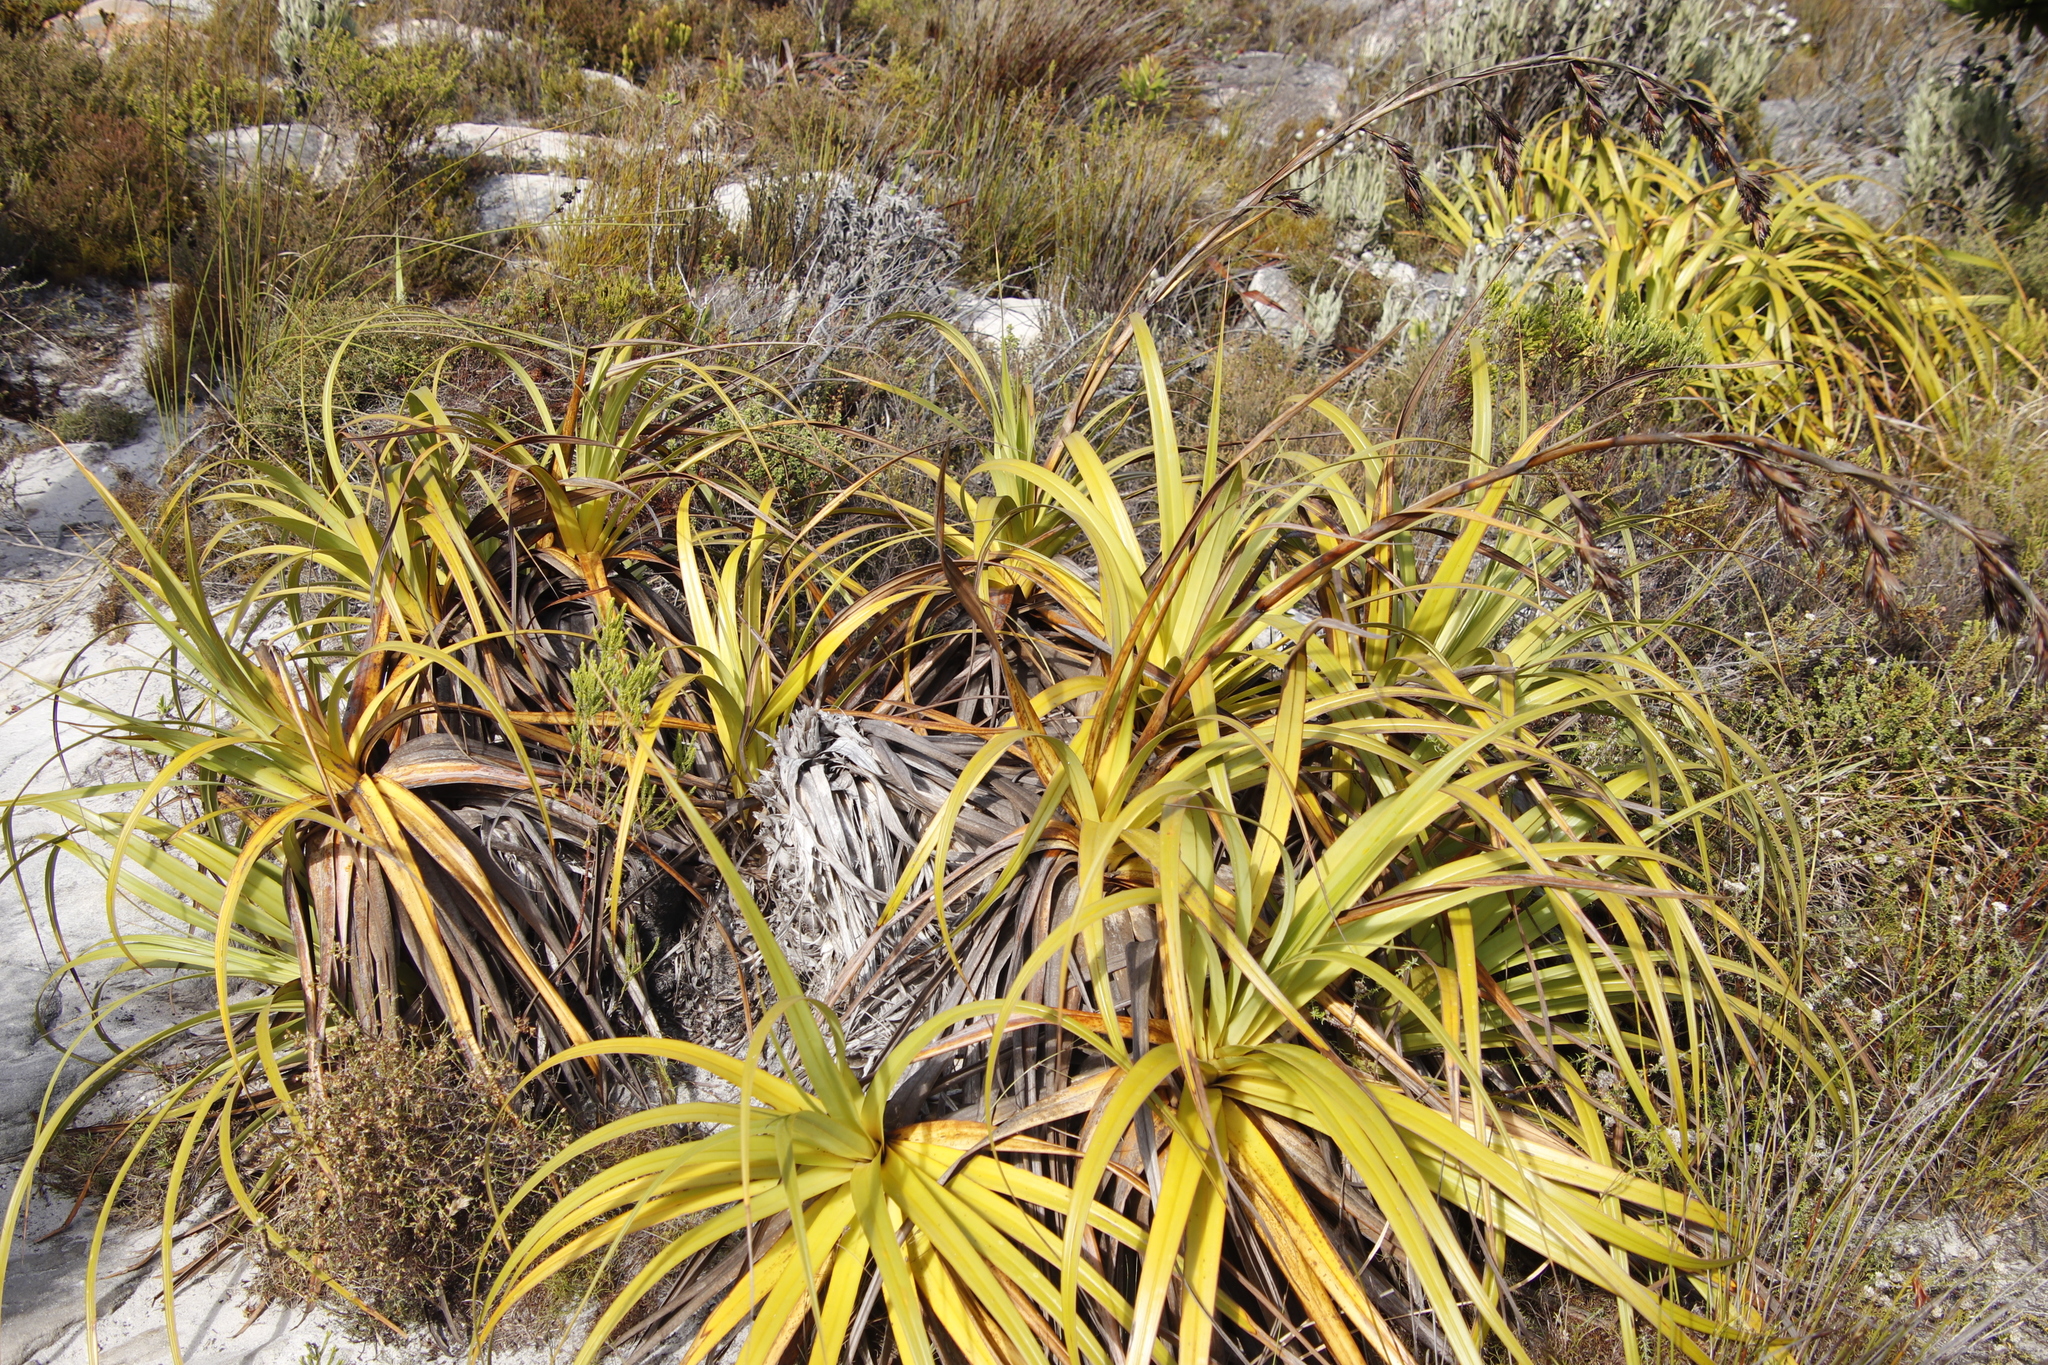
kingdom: Plantae
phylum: Tracheophyta
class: Liliopsida
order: Poales
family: Cyperaceae
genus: Tetraria
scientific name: Tetraria thermalis
